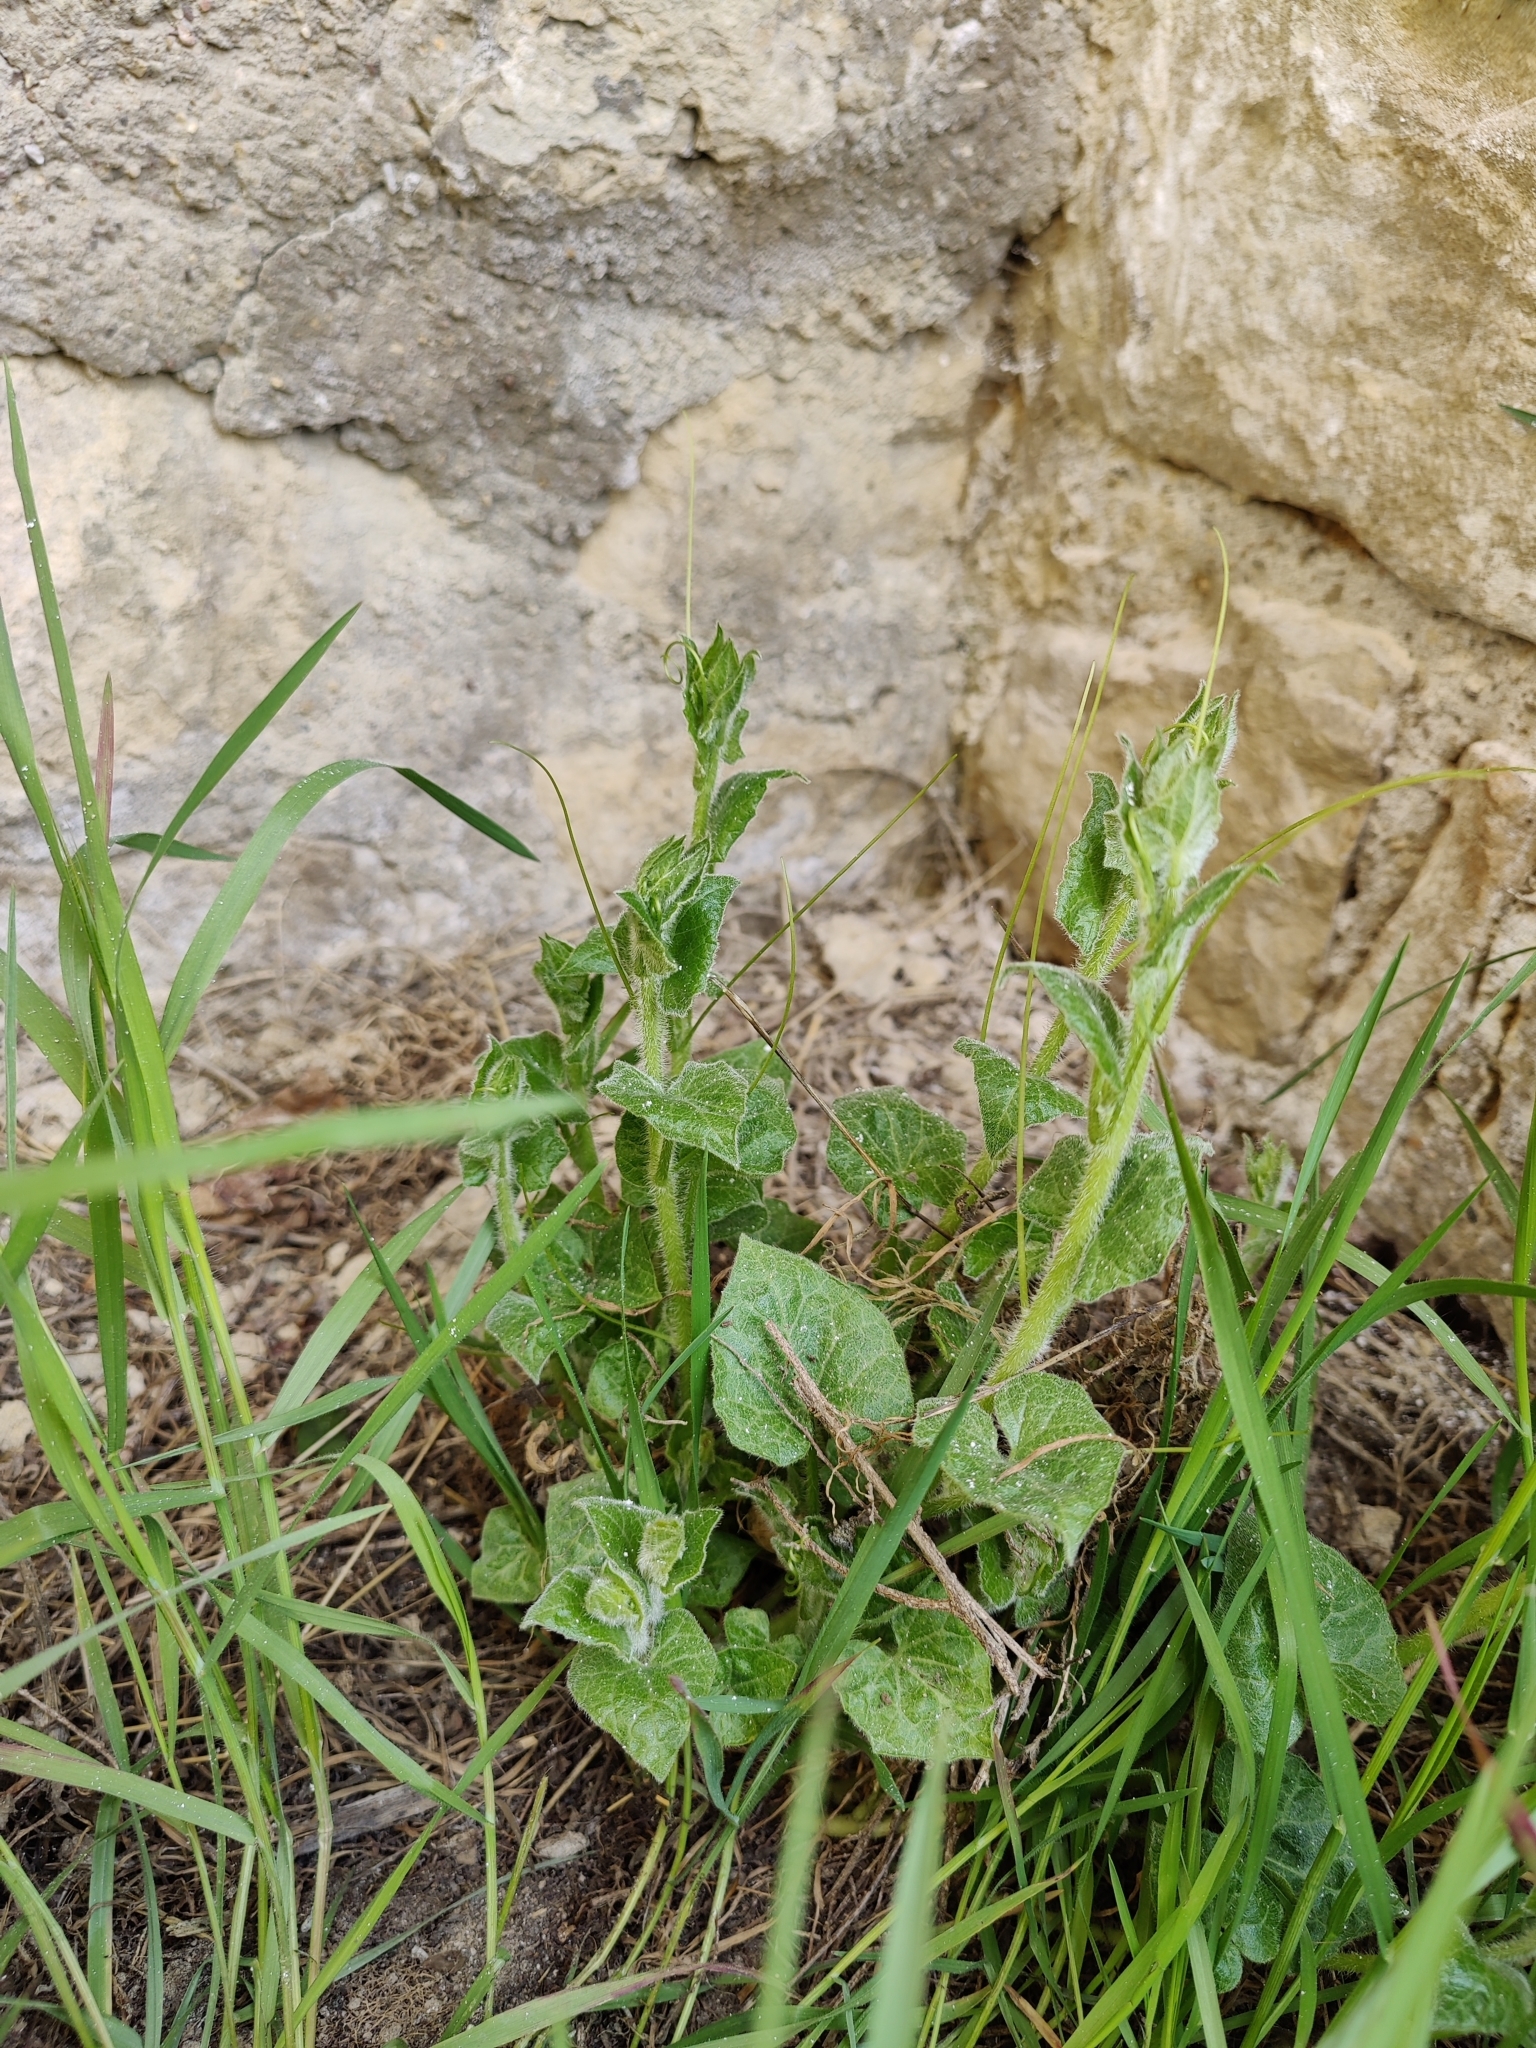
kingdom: Plantae
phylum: Tracheophyta
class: Magnoliopsida
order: Cucurbitales
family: Cucurbitaceae
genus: Bryonia
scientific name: Bryonia cretica
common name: Cretan bryony
